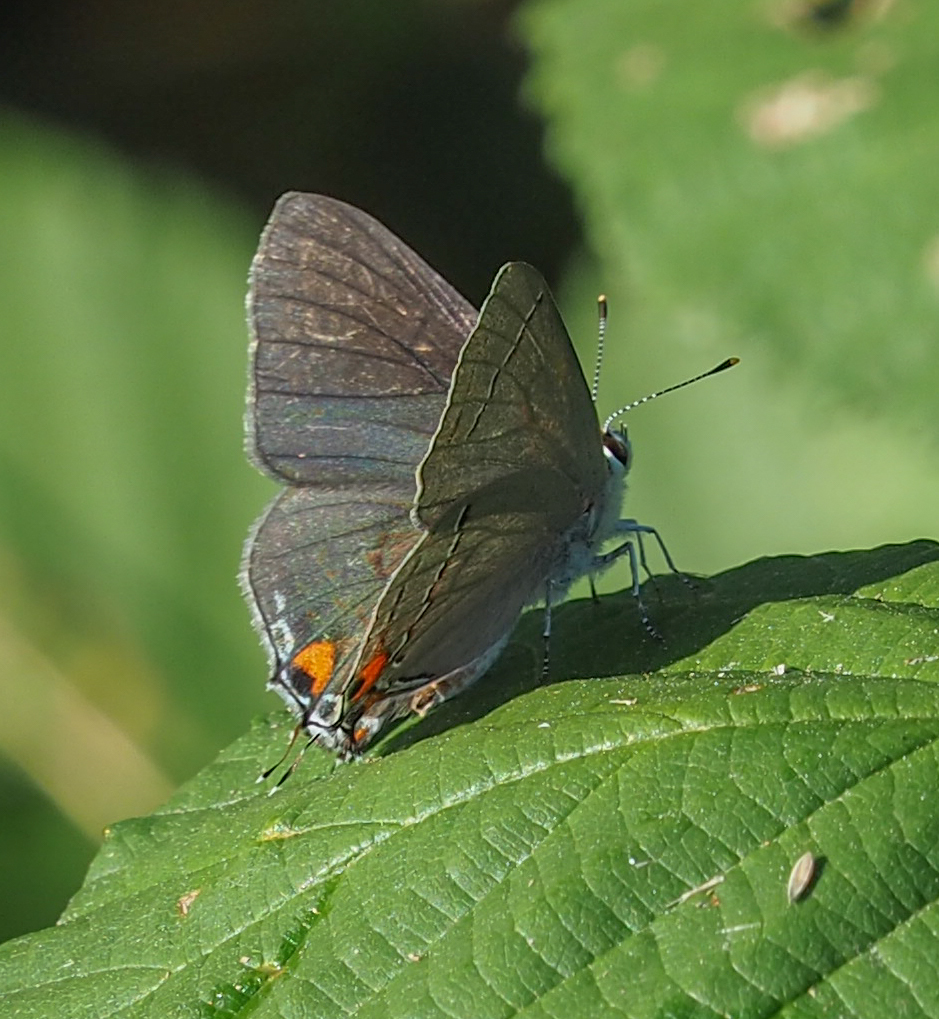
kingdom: Animalia
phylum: Arthropoda
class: Insecta
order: Lepidoptera
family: Lycaenidae
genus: Strymon
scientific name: Strymon melinus
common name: Gray hairstreak
